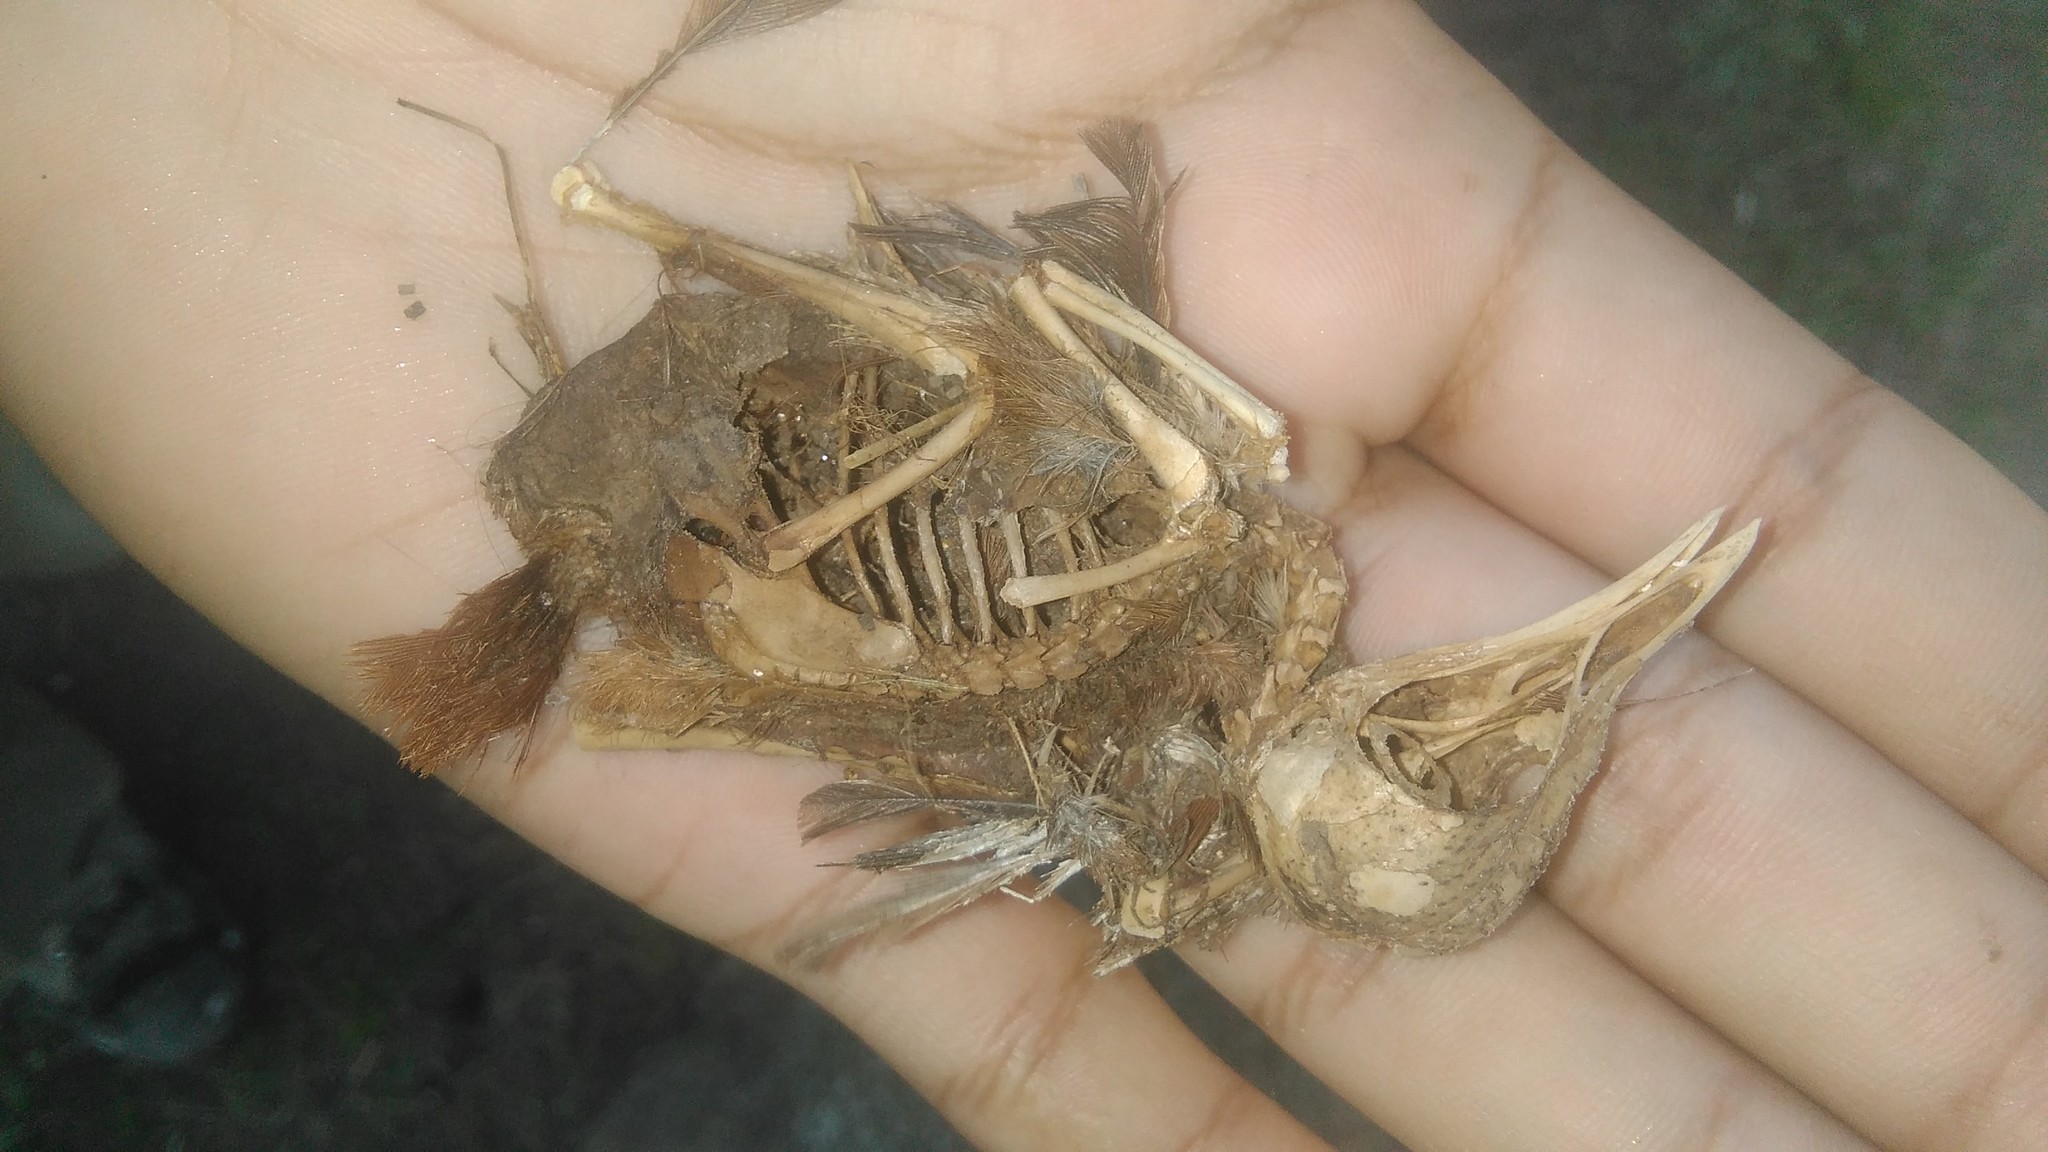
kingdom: Animalia
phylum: Chordata
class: Aves
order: Passeriformes
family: Furnariidae
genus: Furnarius
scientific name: Furnarius rufus
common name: Rufous hornero
